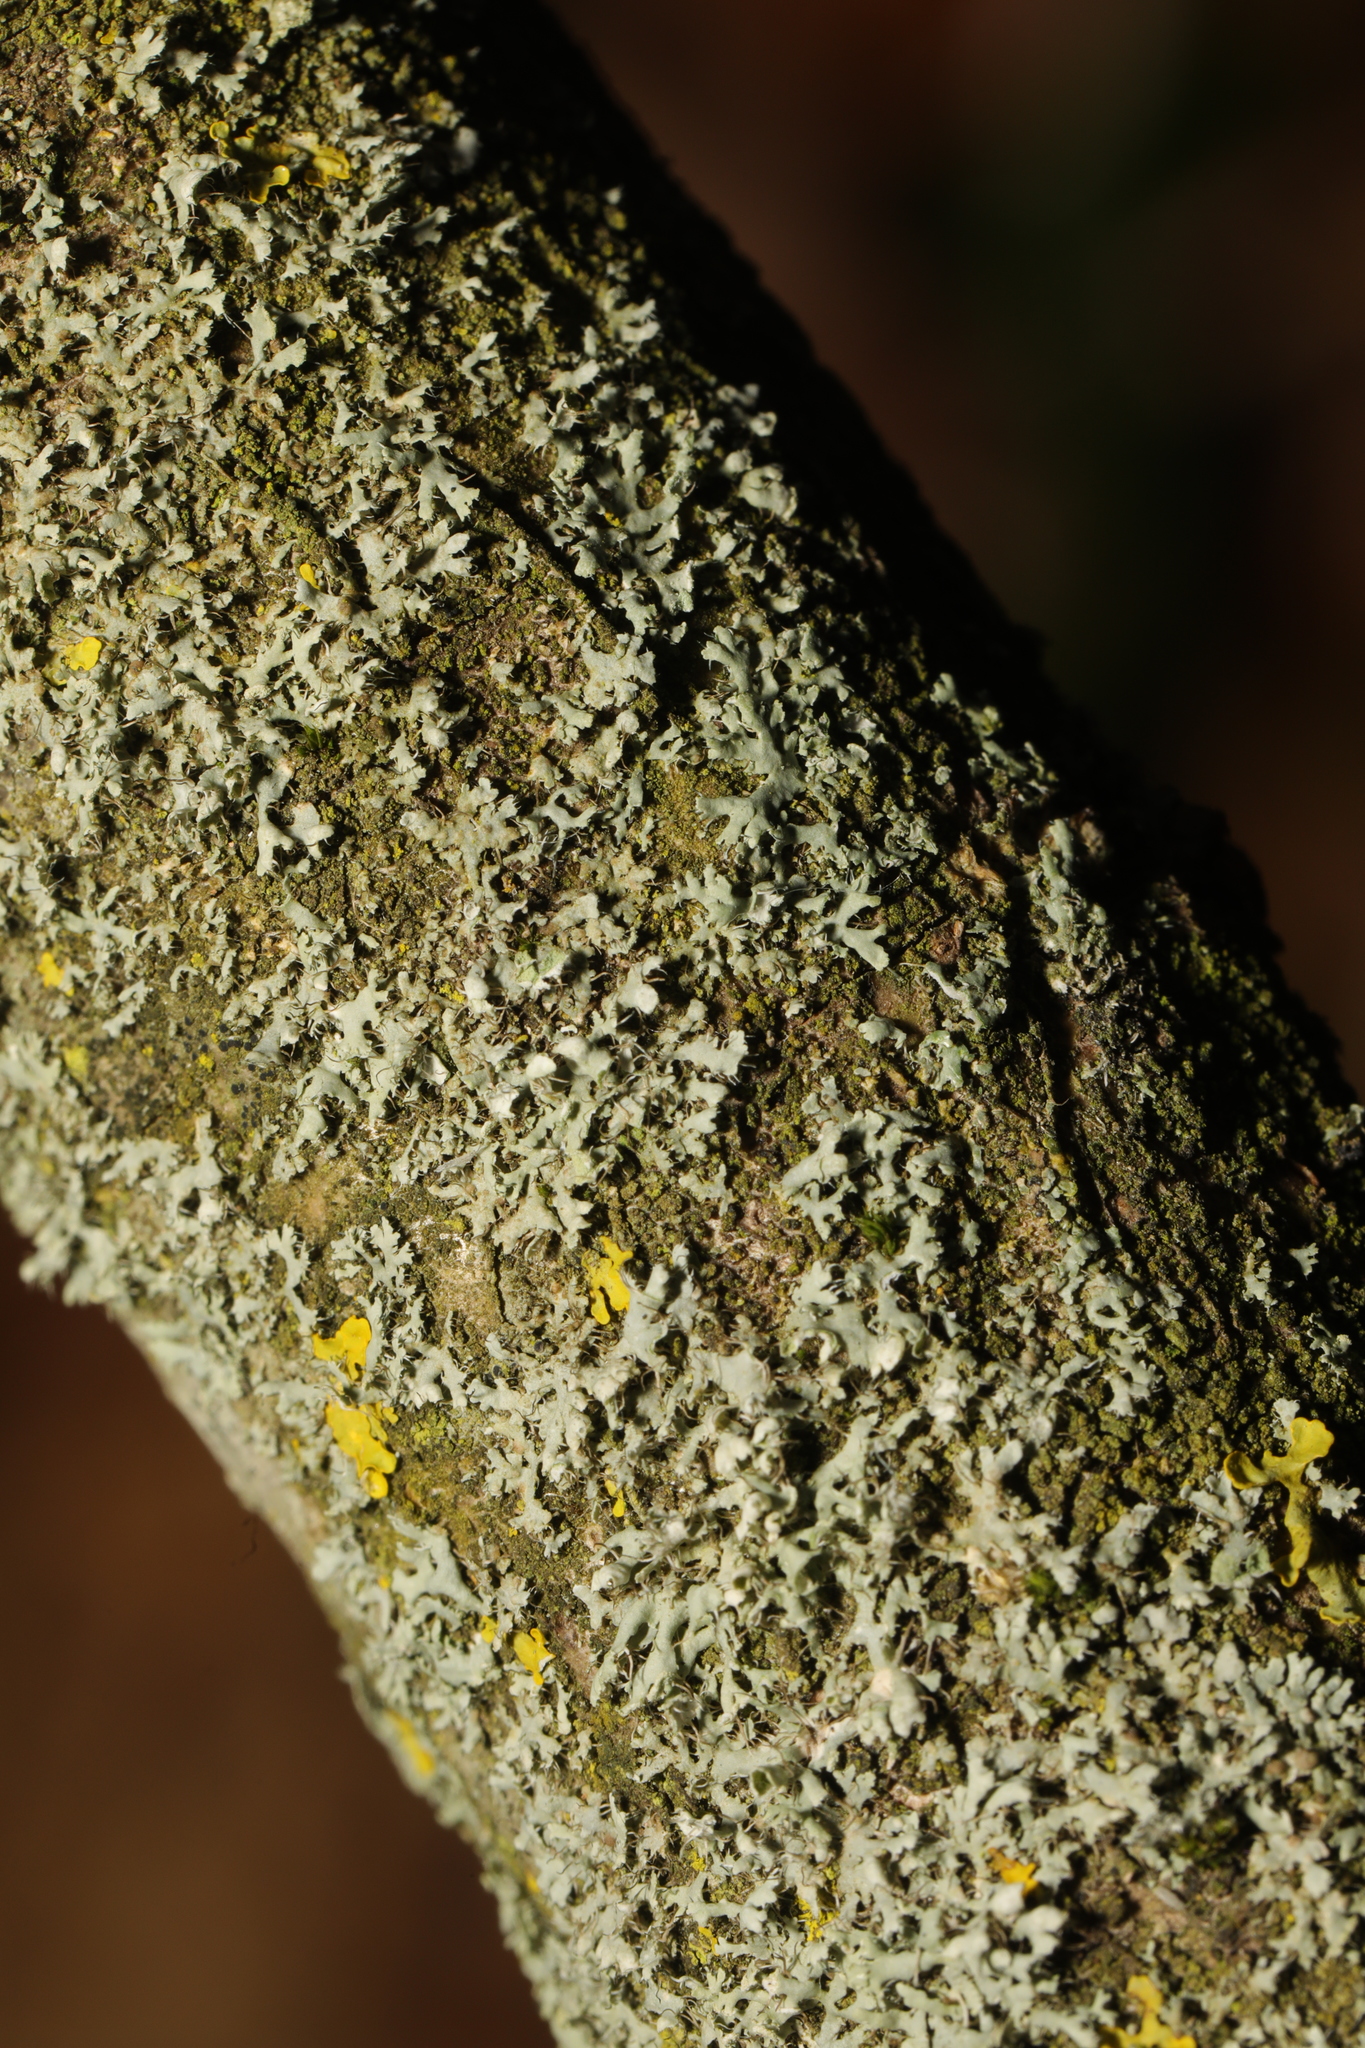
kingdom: Fungi
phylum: Ascomycota
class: Lecanoromycetes
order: Caliciales
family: Physciaceae
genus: Physcia
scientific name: Physcia adscendens
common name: Hooded rosette lichen
